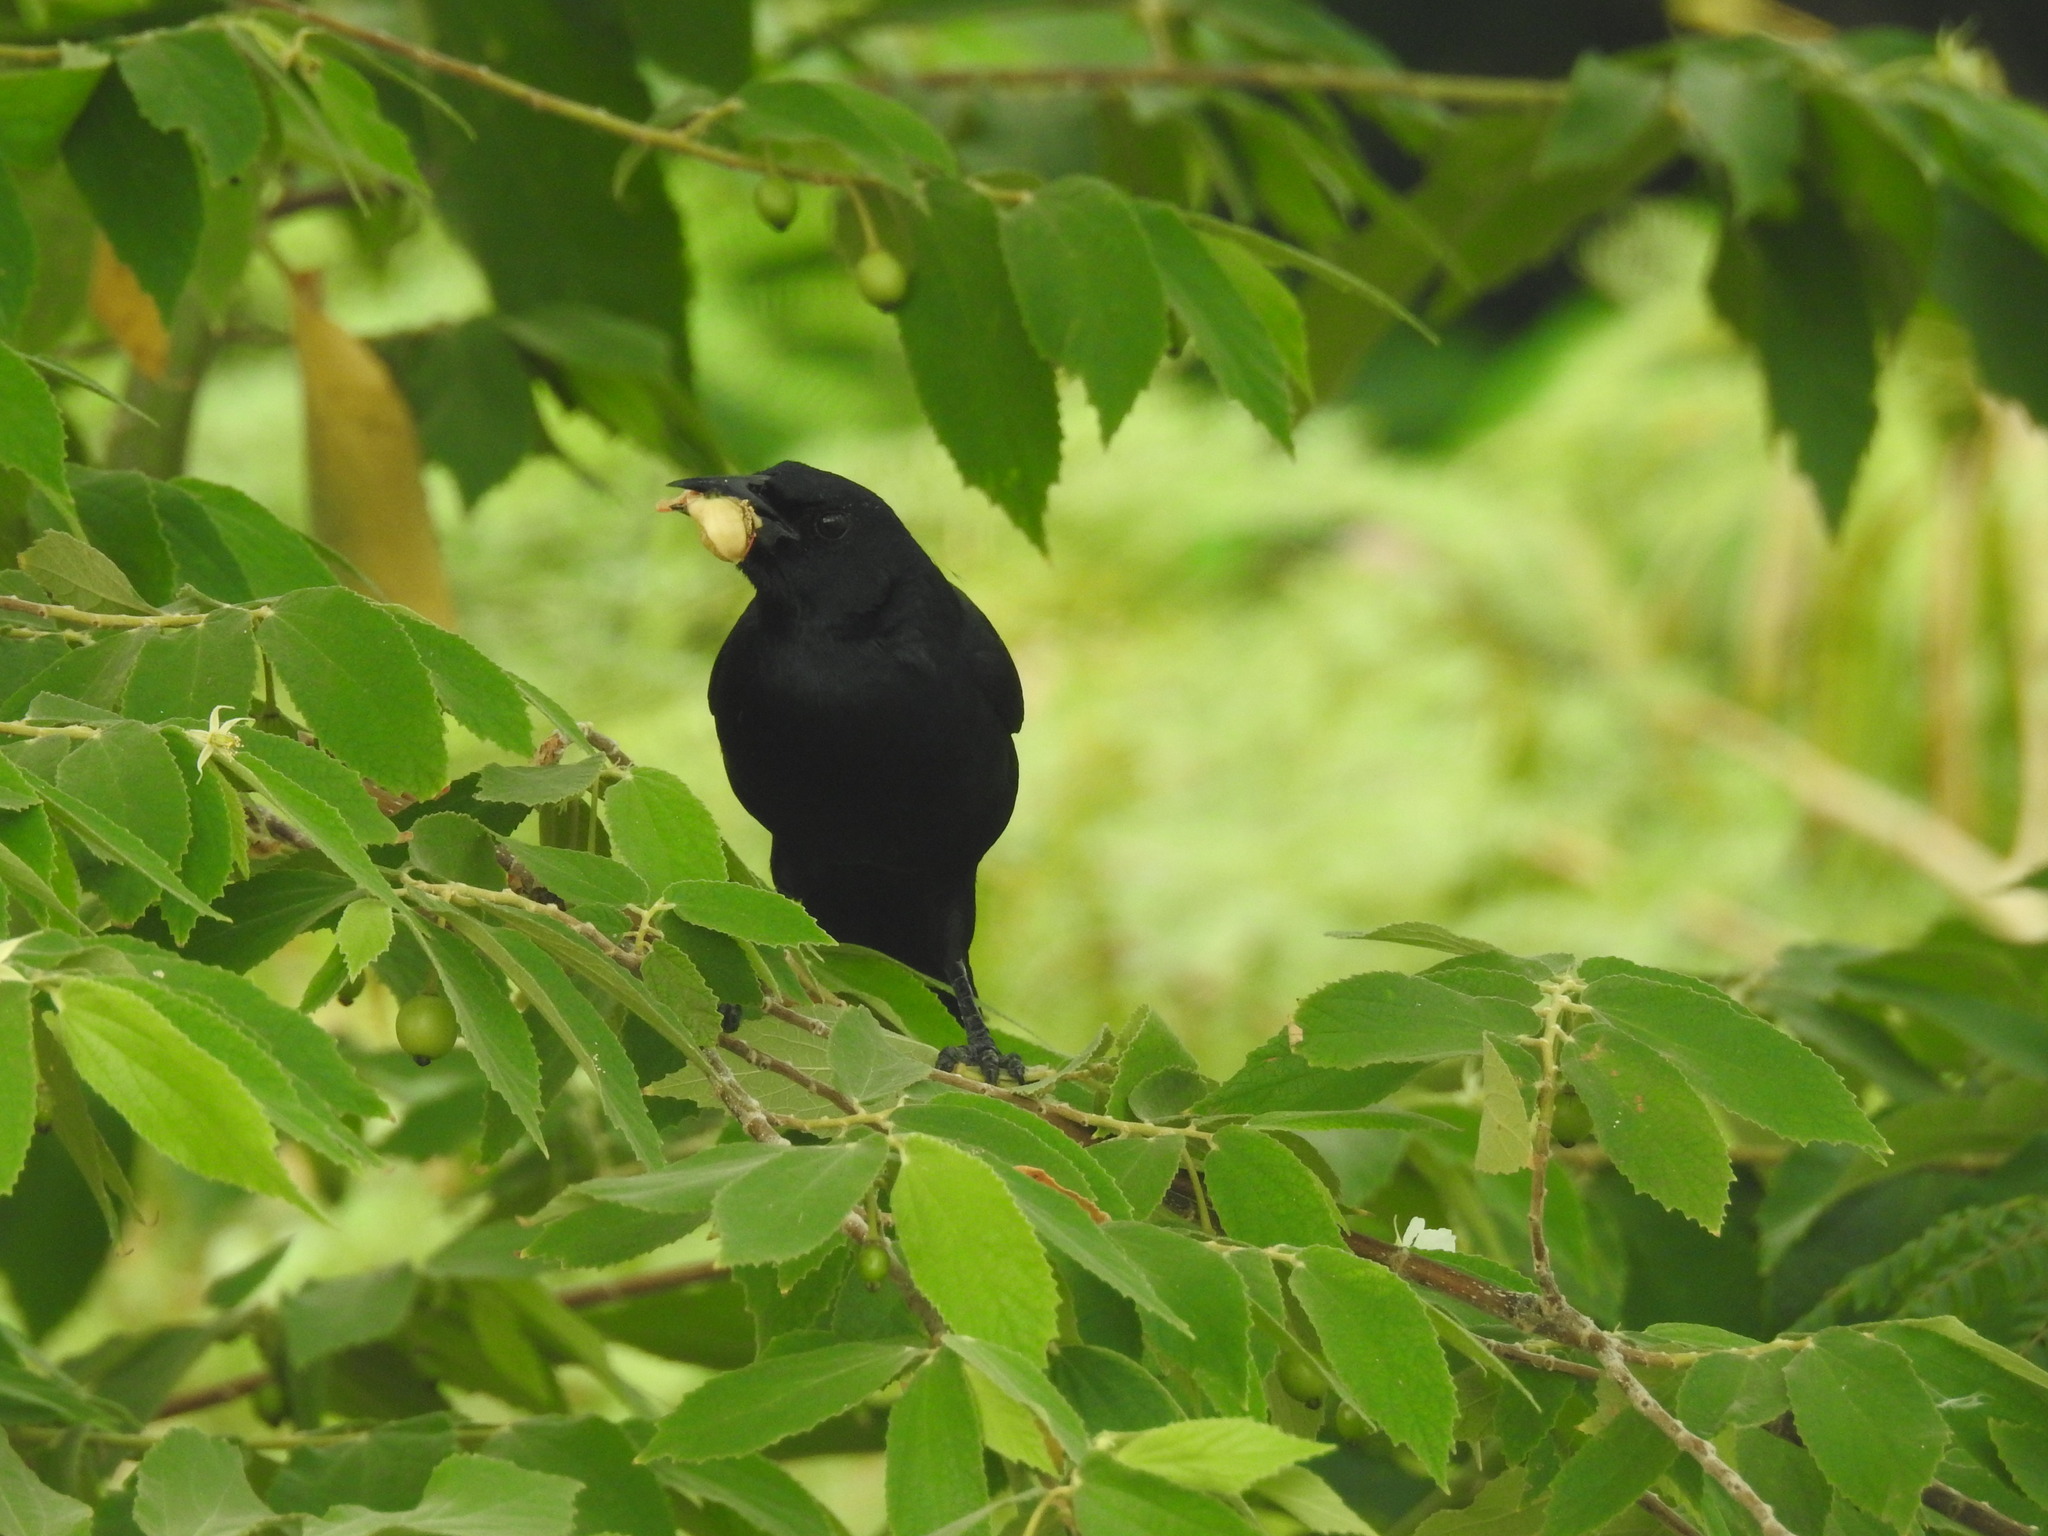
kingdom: Animalia
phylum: Chordata
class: Aves
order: Passeriformes
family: Icteridae
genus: Dives
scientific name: Dives dives
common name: Melodious blackbird
